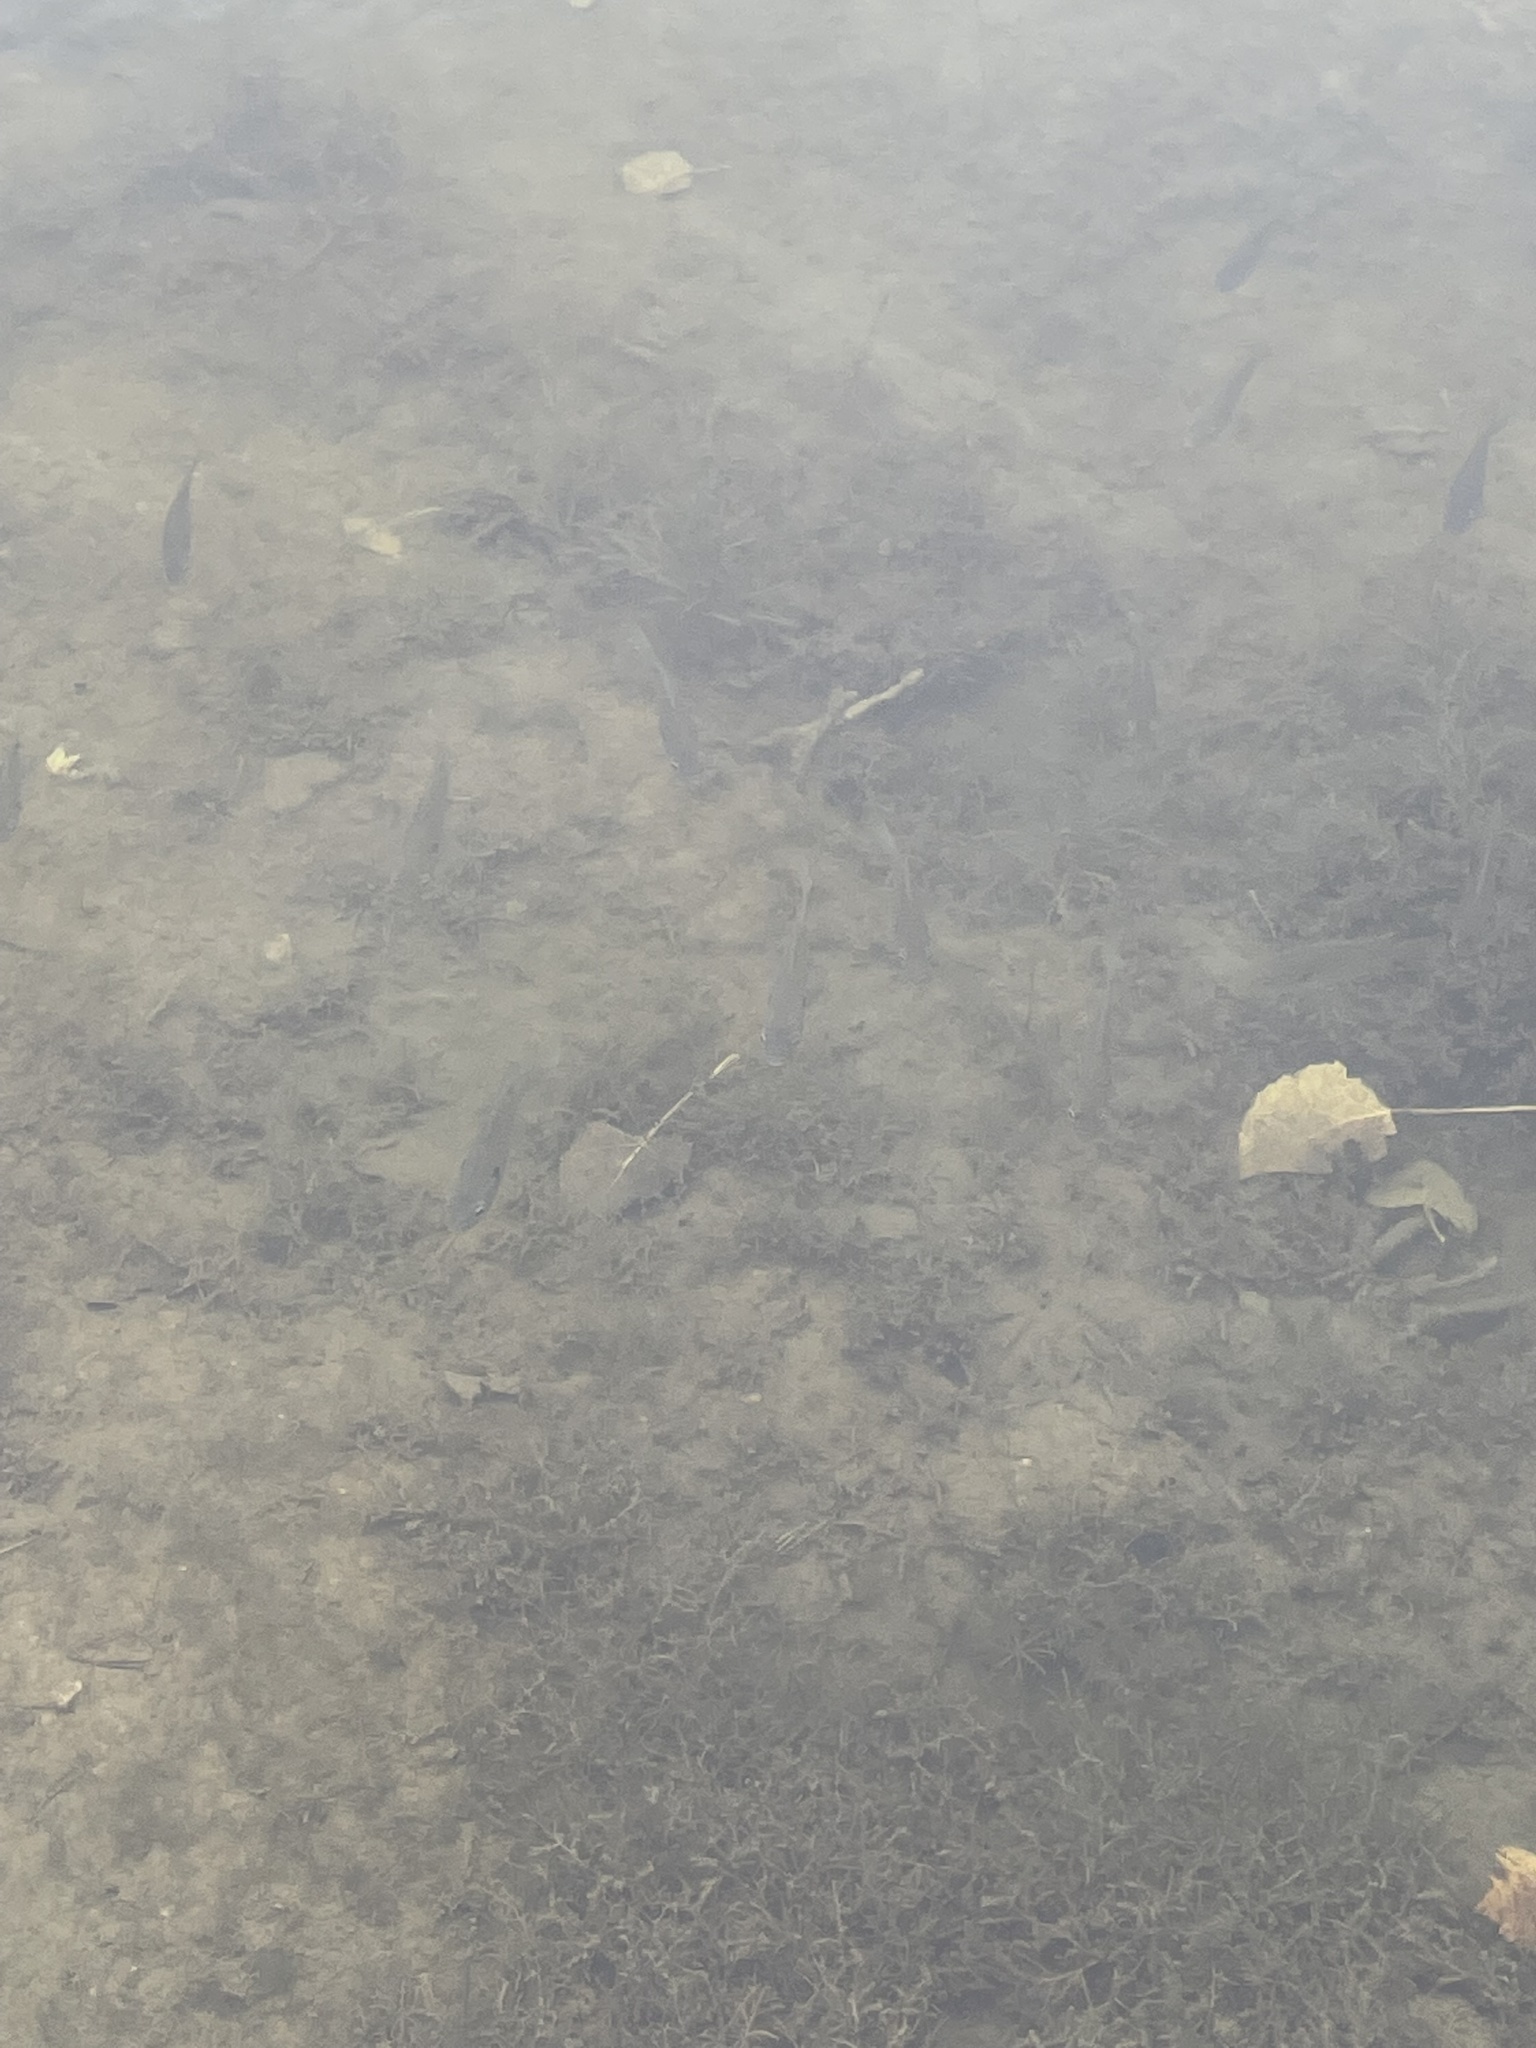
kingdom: Animalia
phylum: Chordata
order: Perciformes
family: Centrarchidae
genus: Lepomis
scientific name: Lepomis macrochirus
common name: Bluegill
